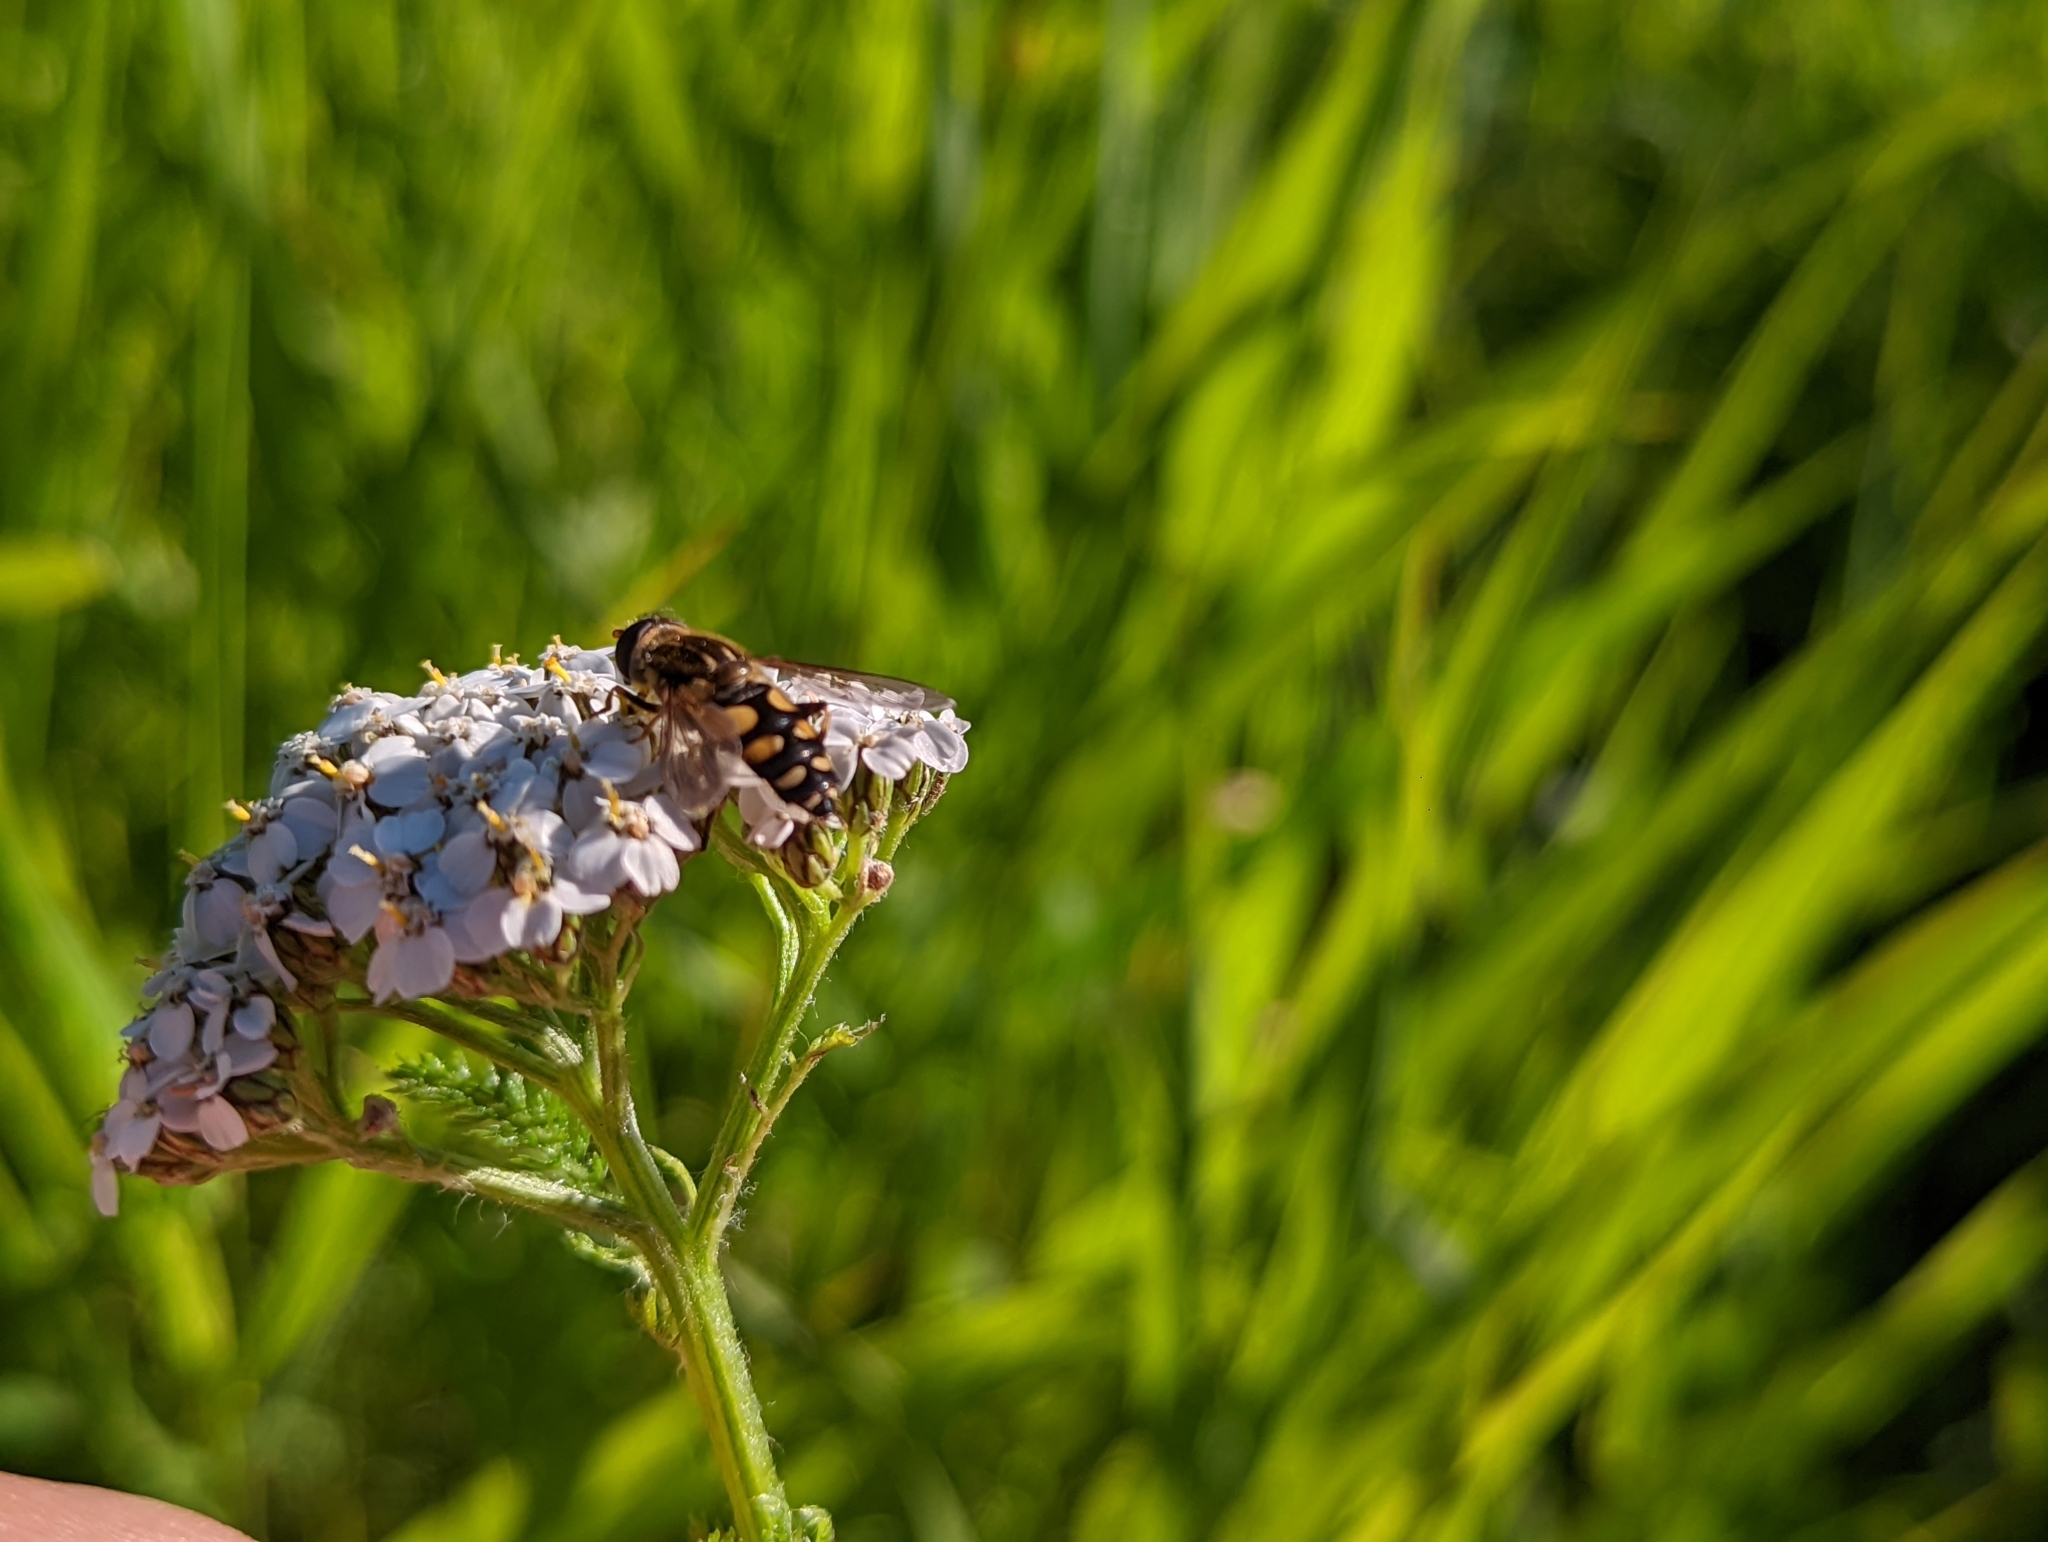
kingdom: Animalia
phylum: Arthropoda
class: Insecta
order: Diptera
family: Syrphidae
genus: Helophilus
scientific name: Helophilus obscurus
